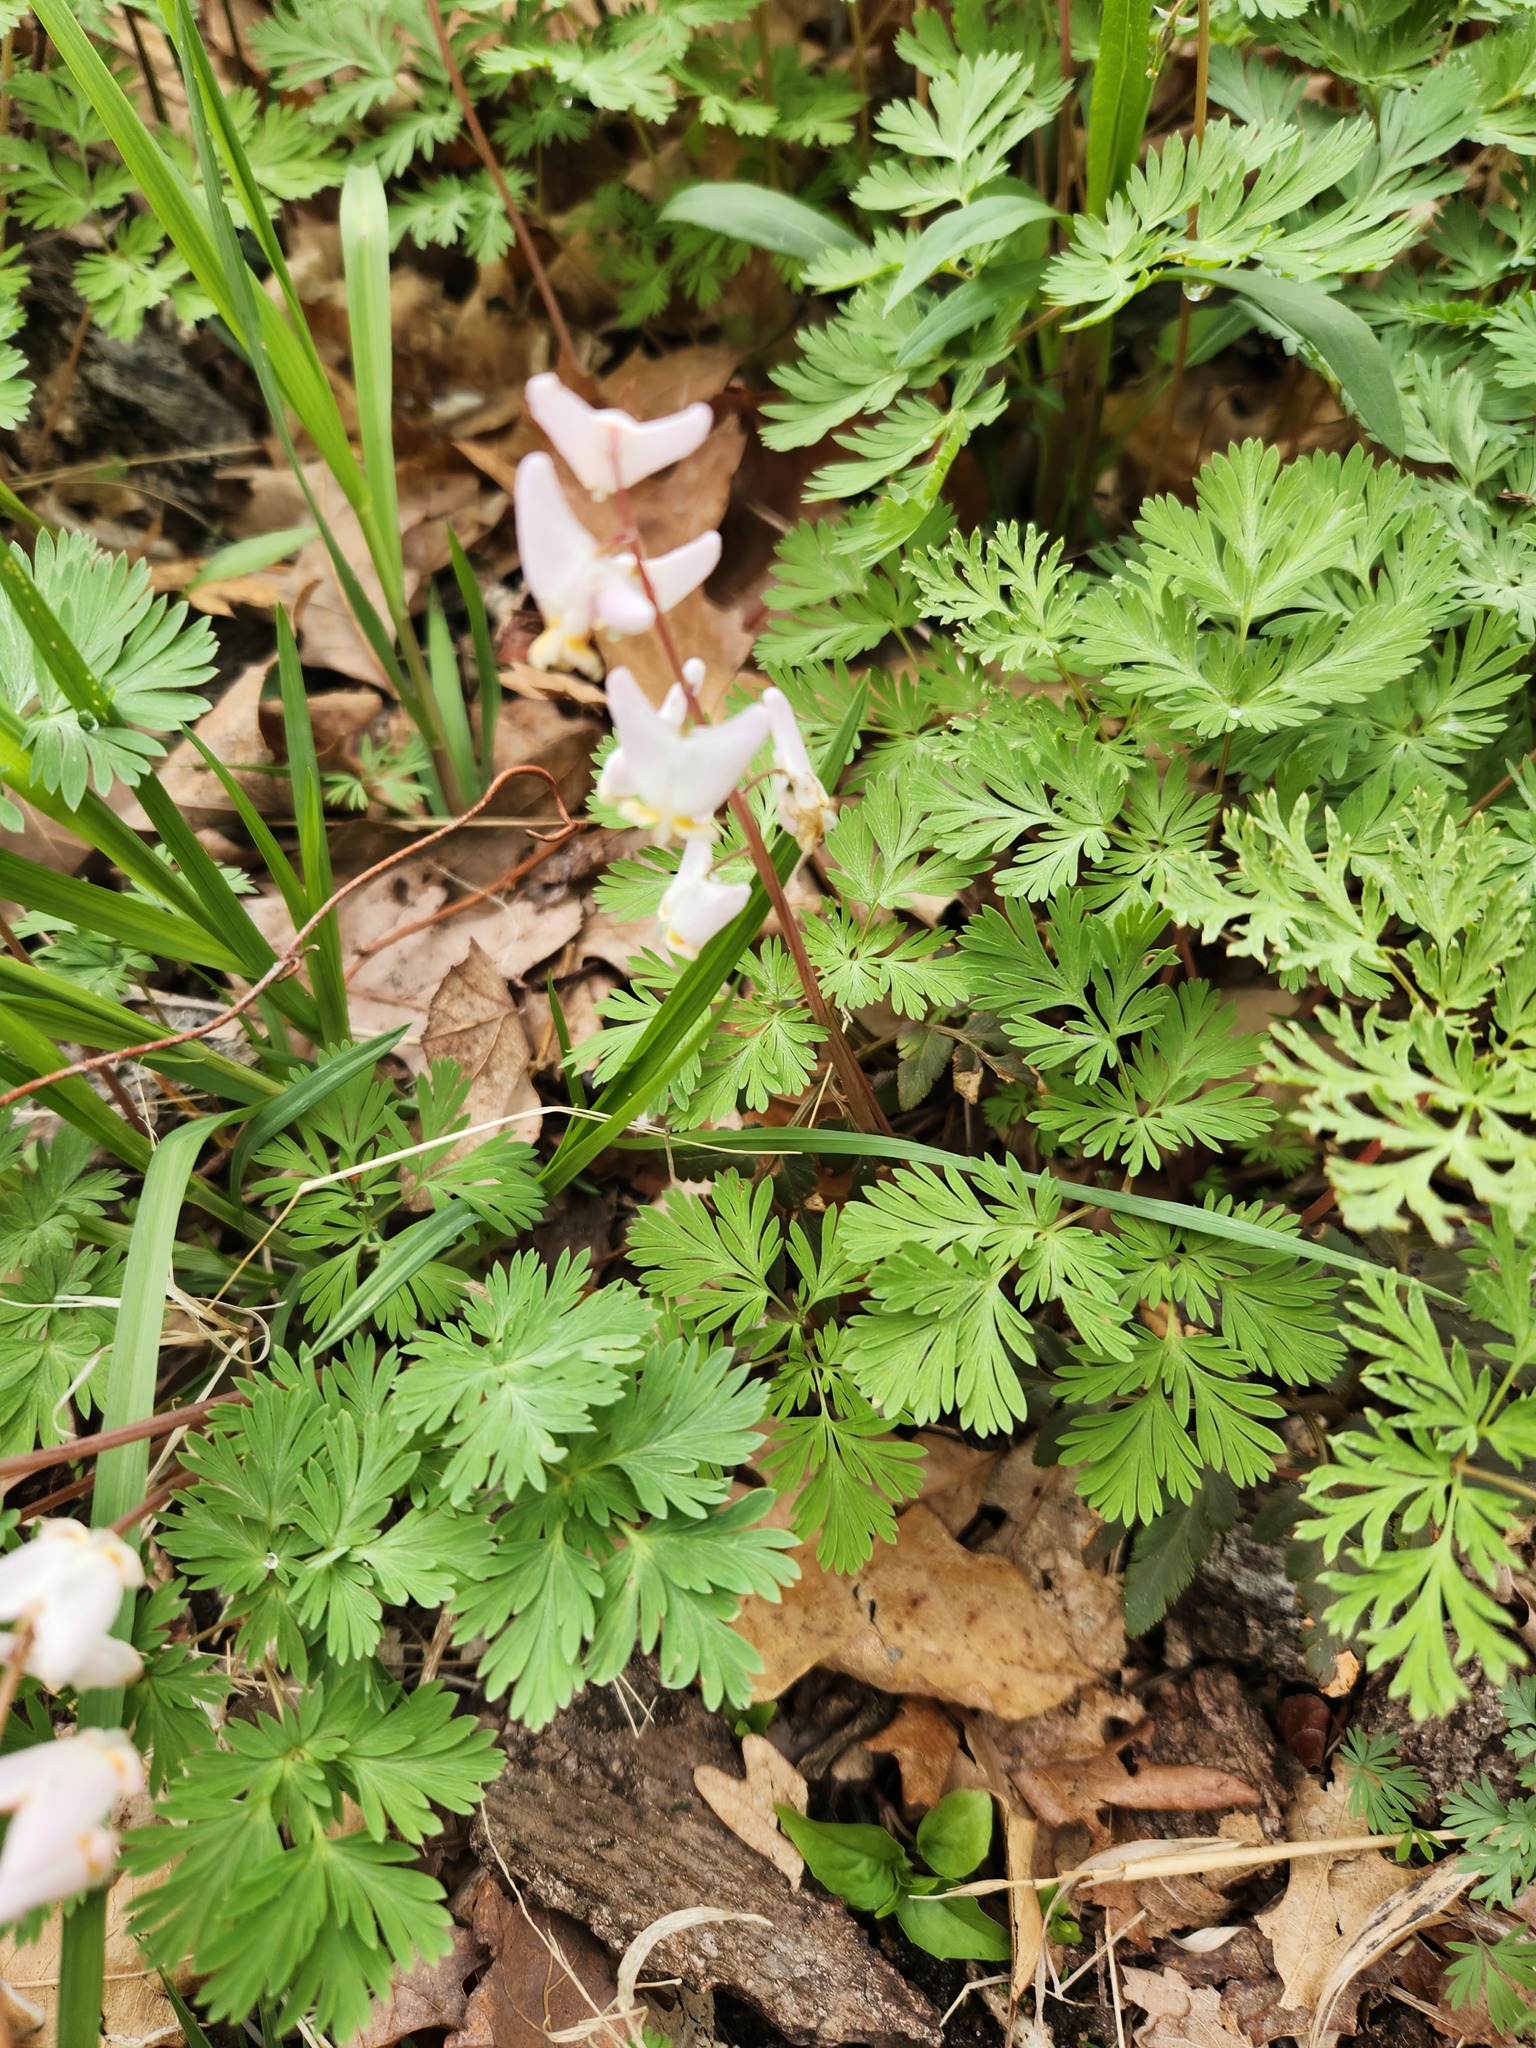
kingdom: Plantae
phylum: Tracheophyta
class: Magnoliopsida
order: Ranunculales
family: Papaveraceae
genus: Dicentra
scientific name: Dicentra cucullaria
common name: Dutchman's breeches
